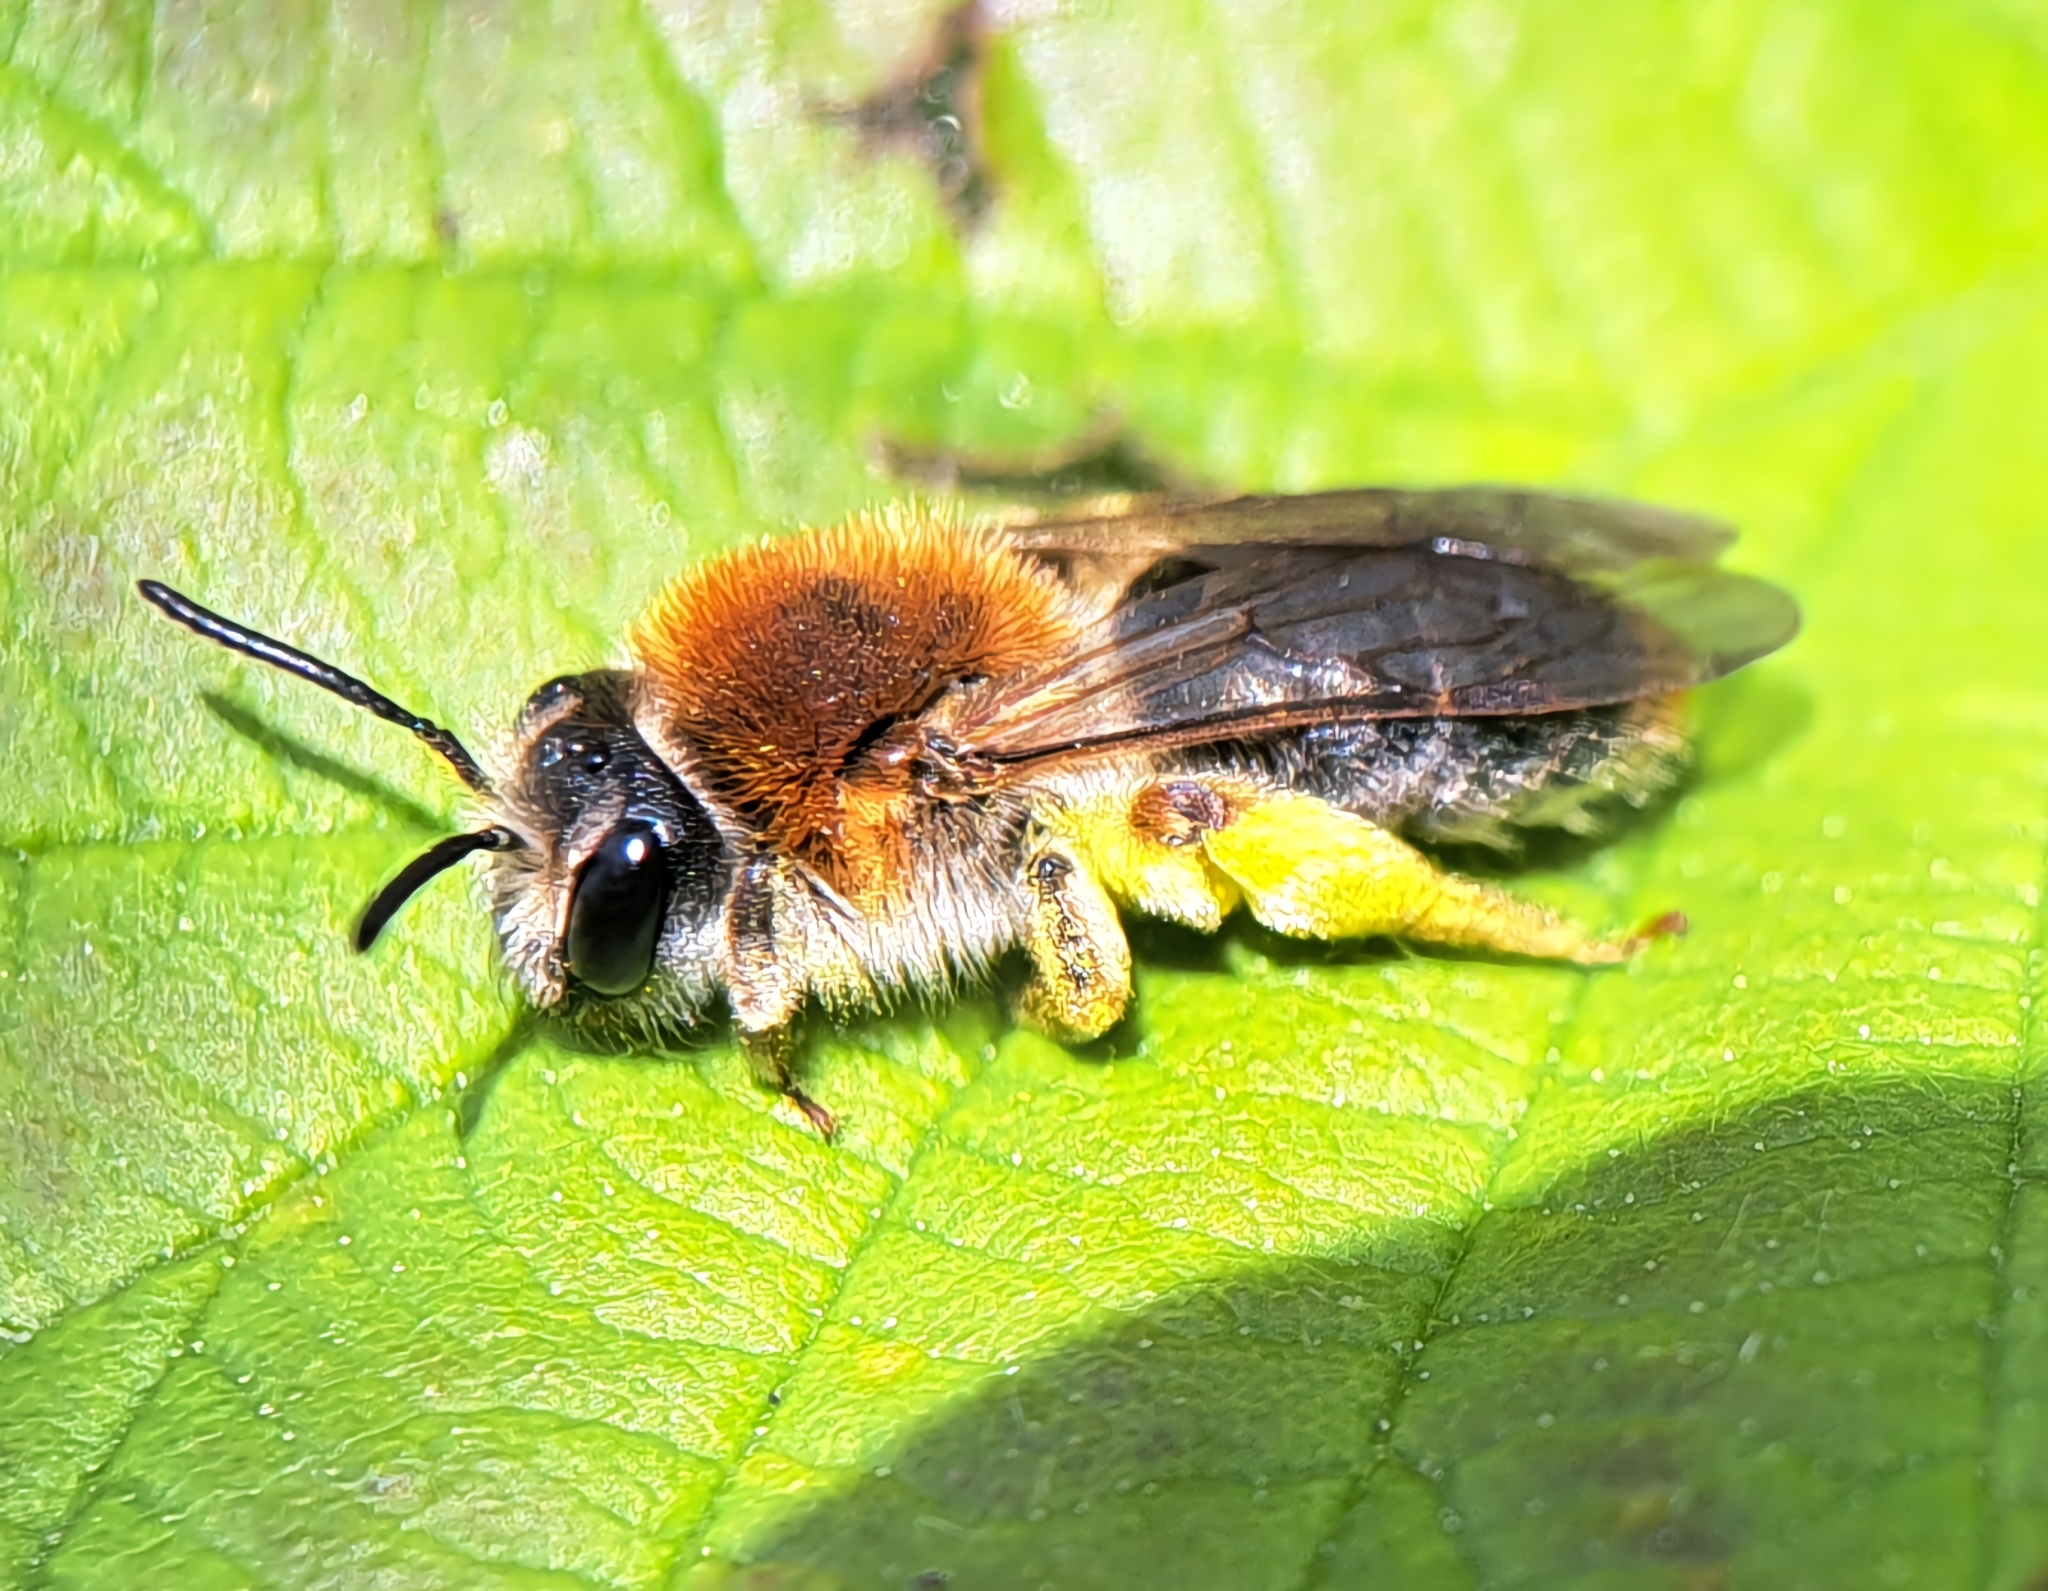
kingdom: Animalia
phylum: Arthropoda
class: Insecta
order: Hymenoptera
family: Andrenidae
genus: Andrena
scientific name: Andrena haemorrhoa
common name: Early mining bee
